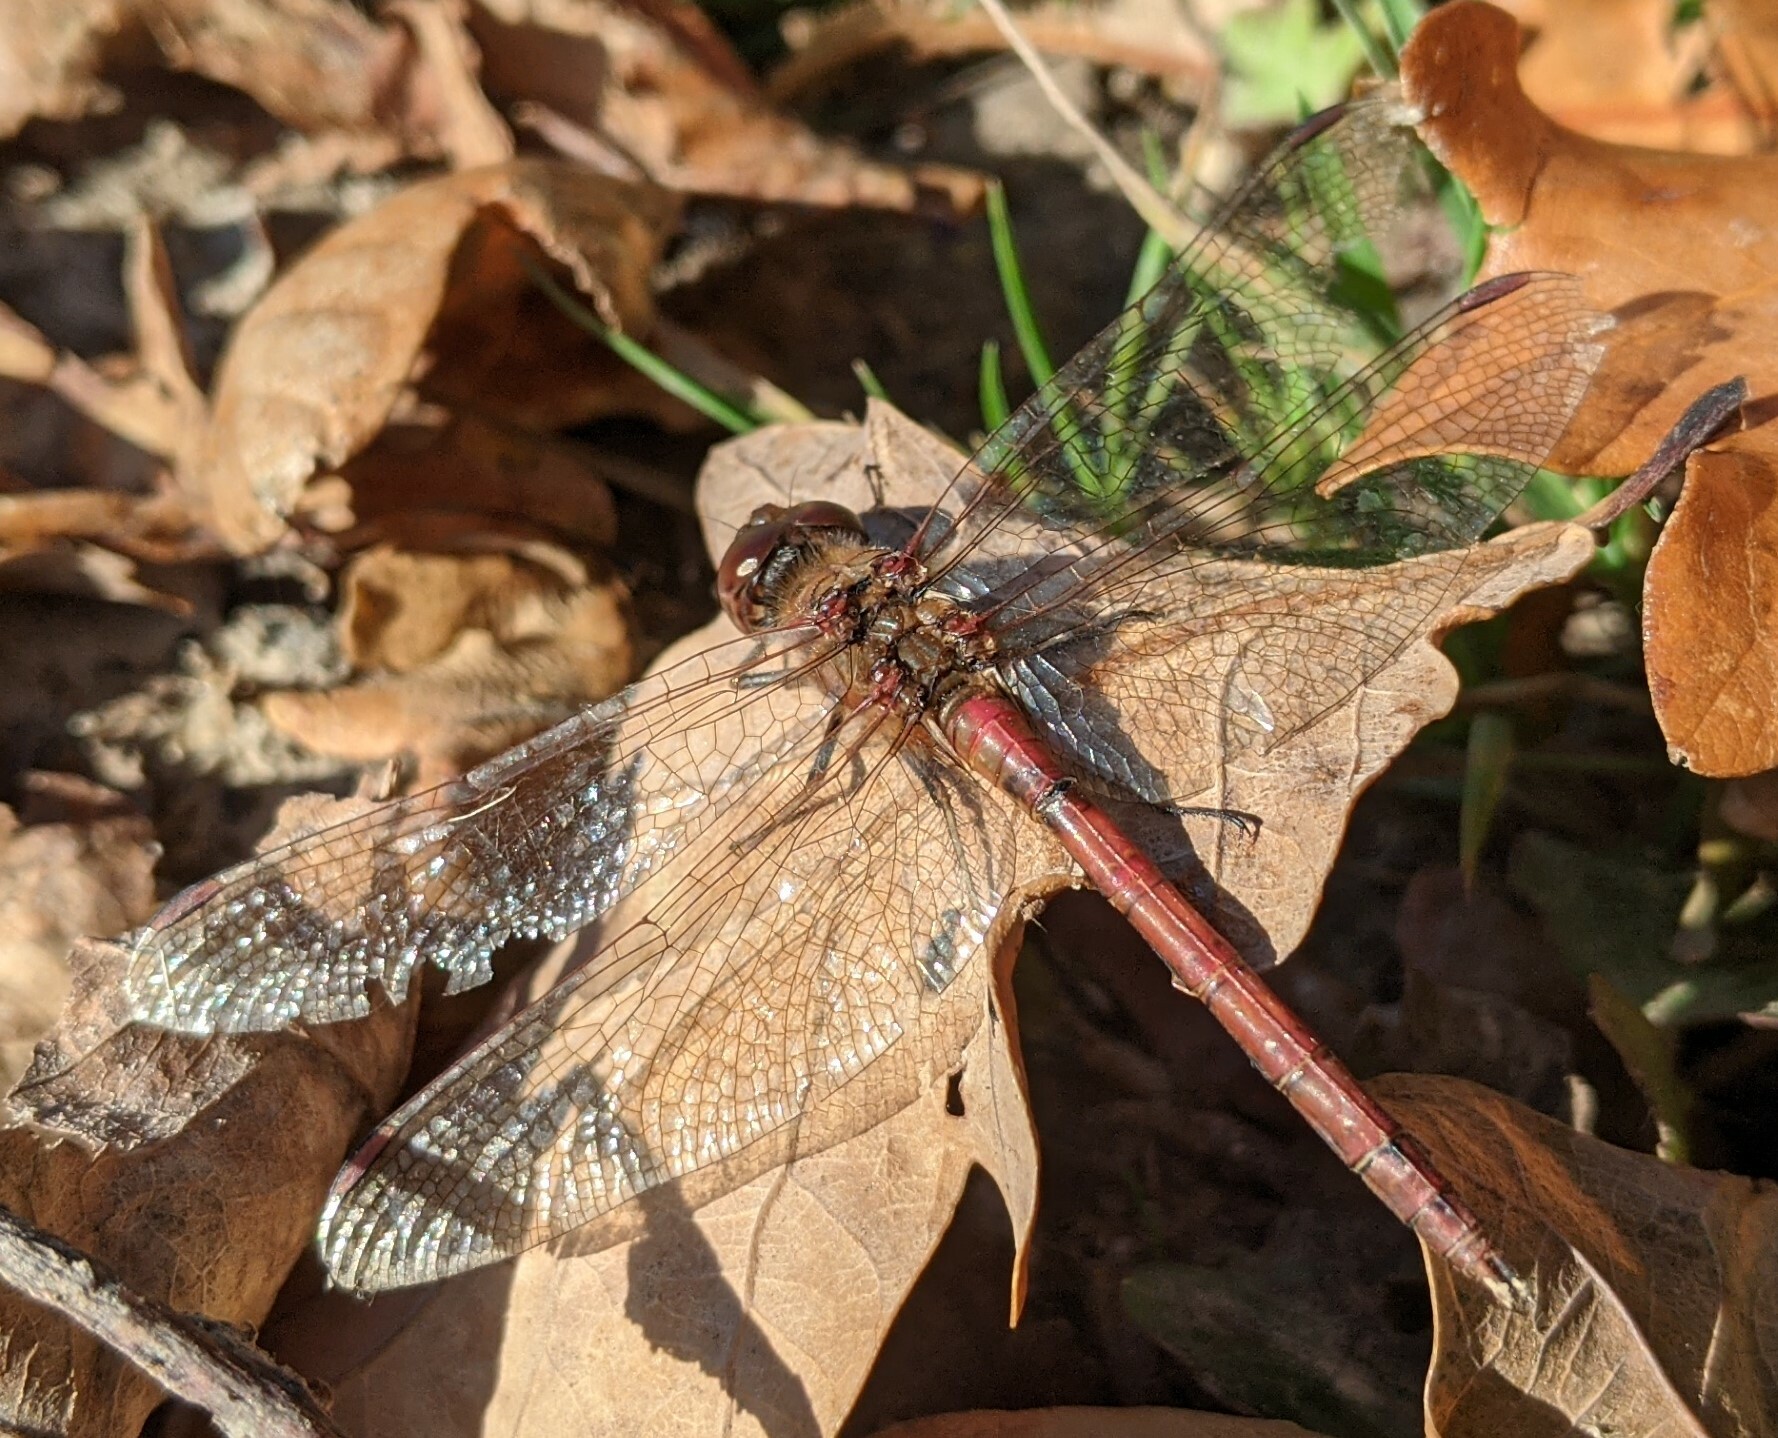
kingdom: Animalia
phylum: Arthropoda
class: Insecta
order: Odonata
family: Libellulidae
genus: Sympetrum
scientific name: Sympetrum striolatum
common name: Common darter
